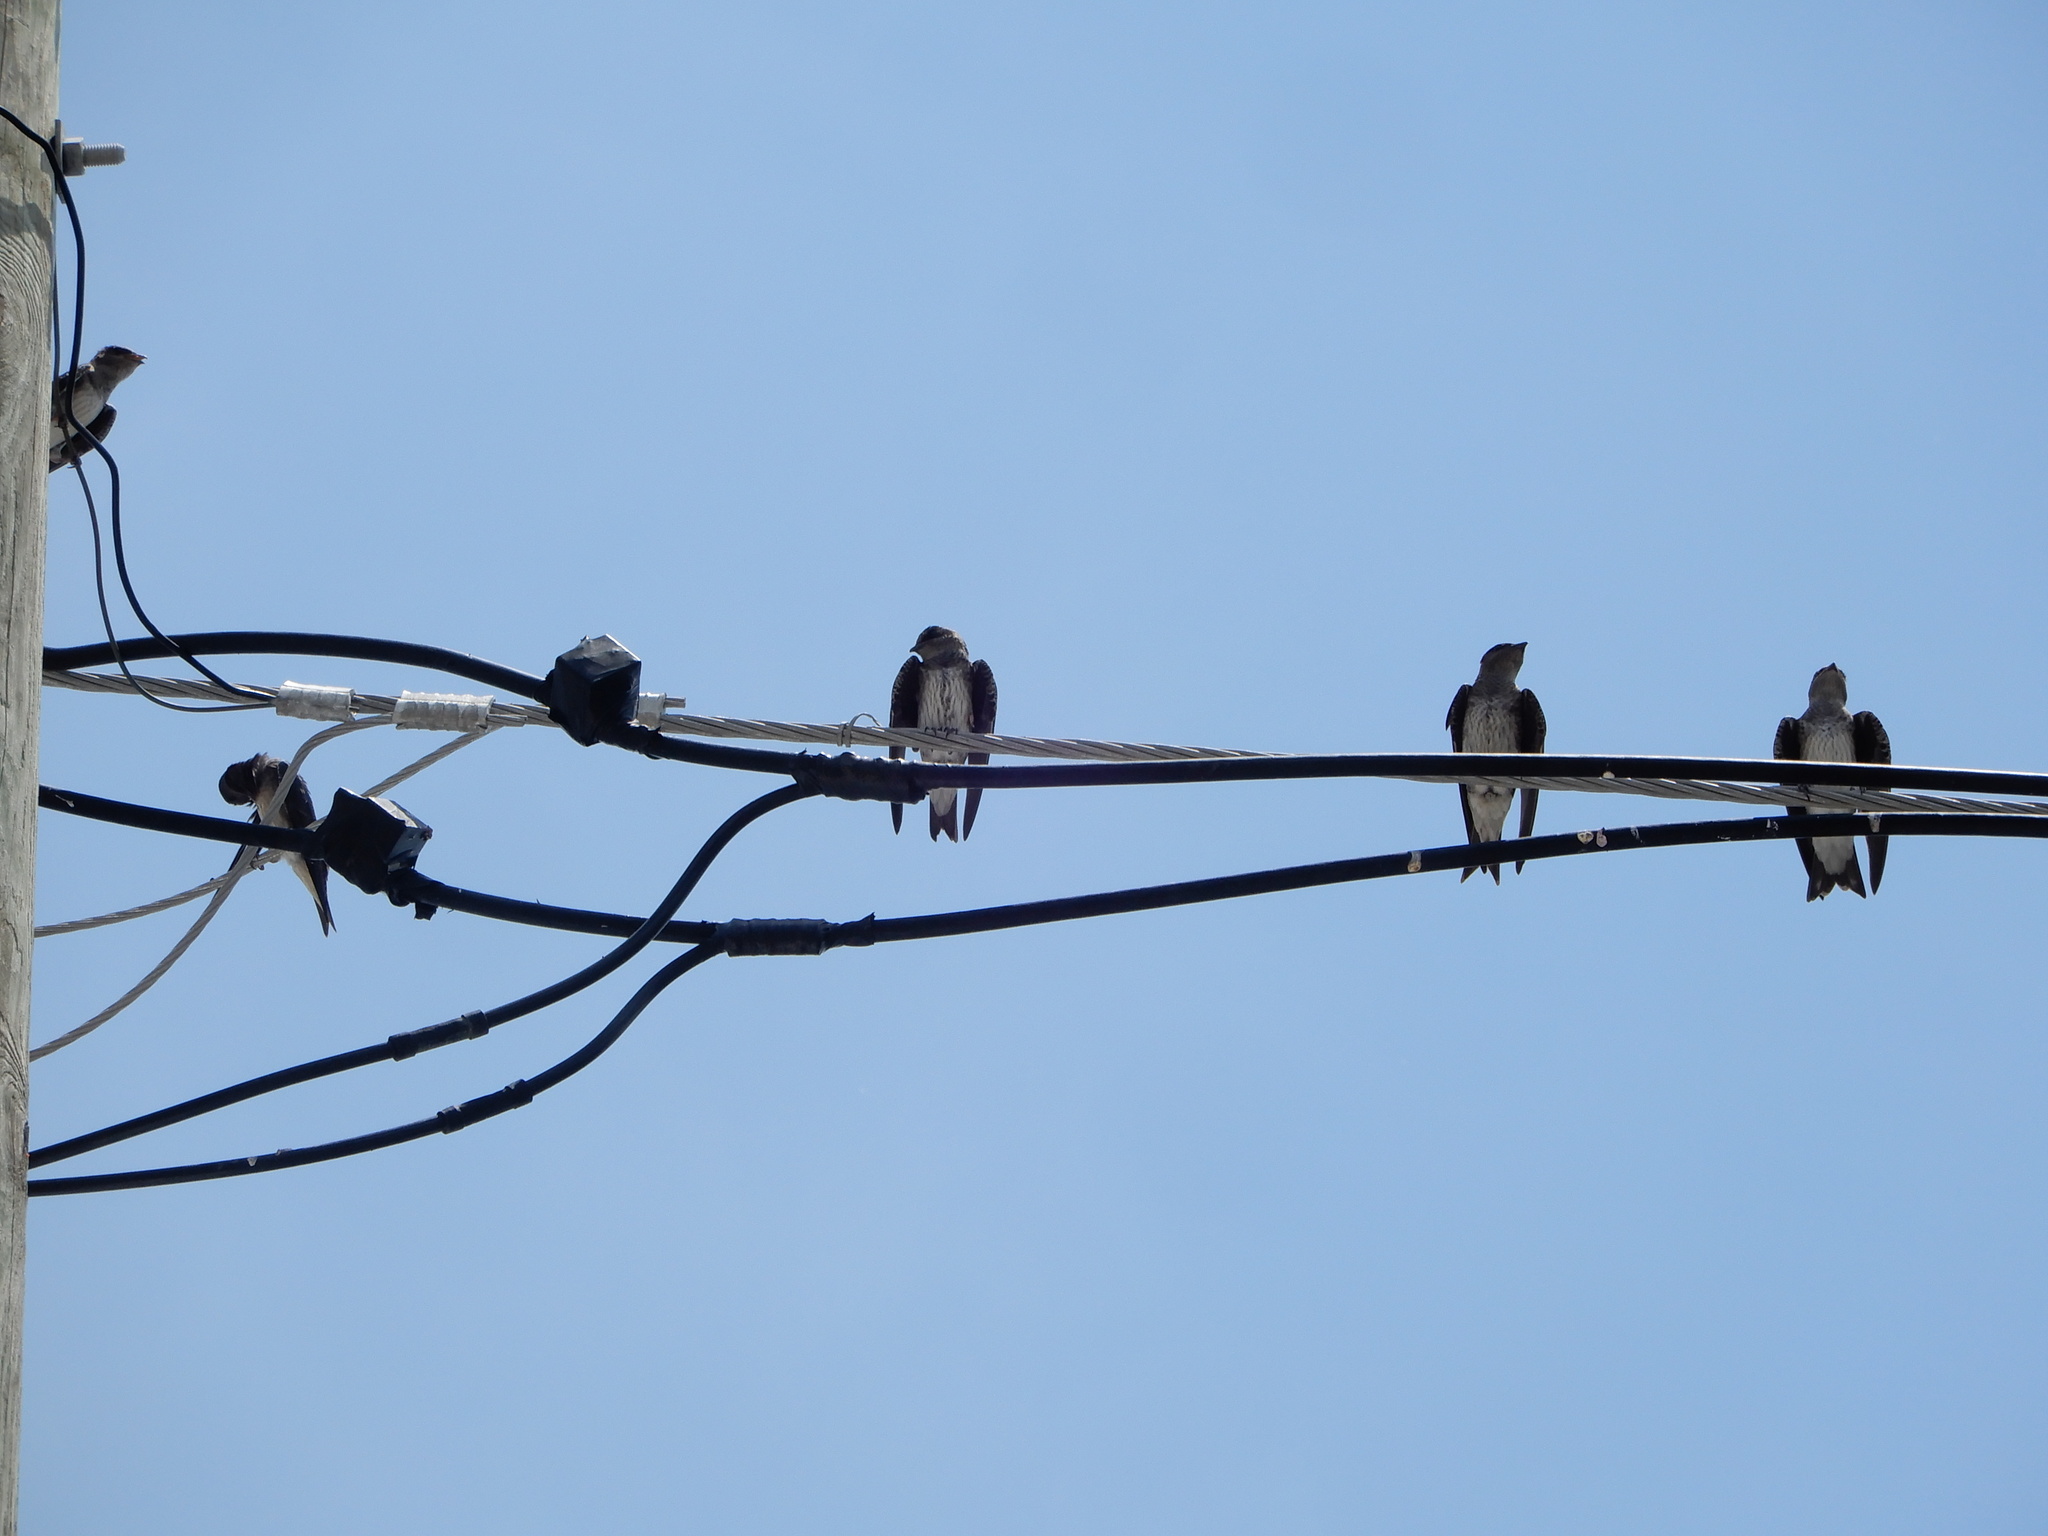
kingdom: Animalia
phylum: Chordata
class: Aves
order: Passeriformes
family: Hirundinidae
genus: Progne
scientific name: Progne subis
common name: Purple martin
